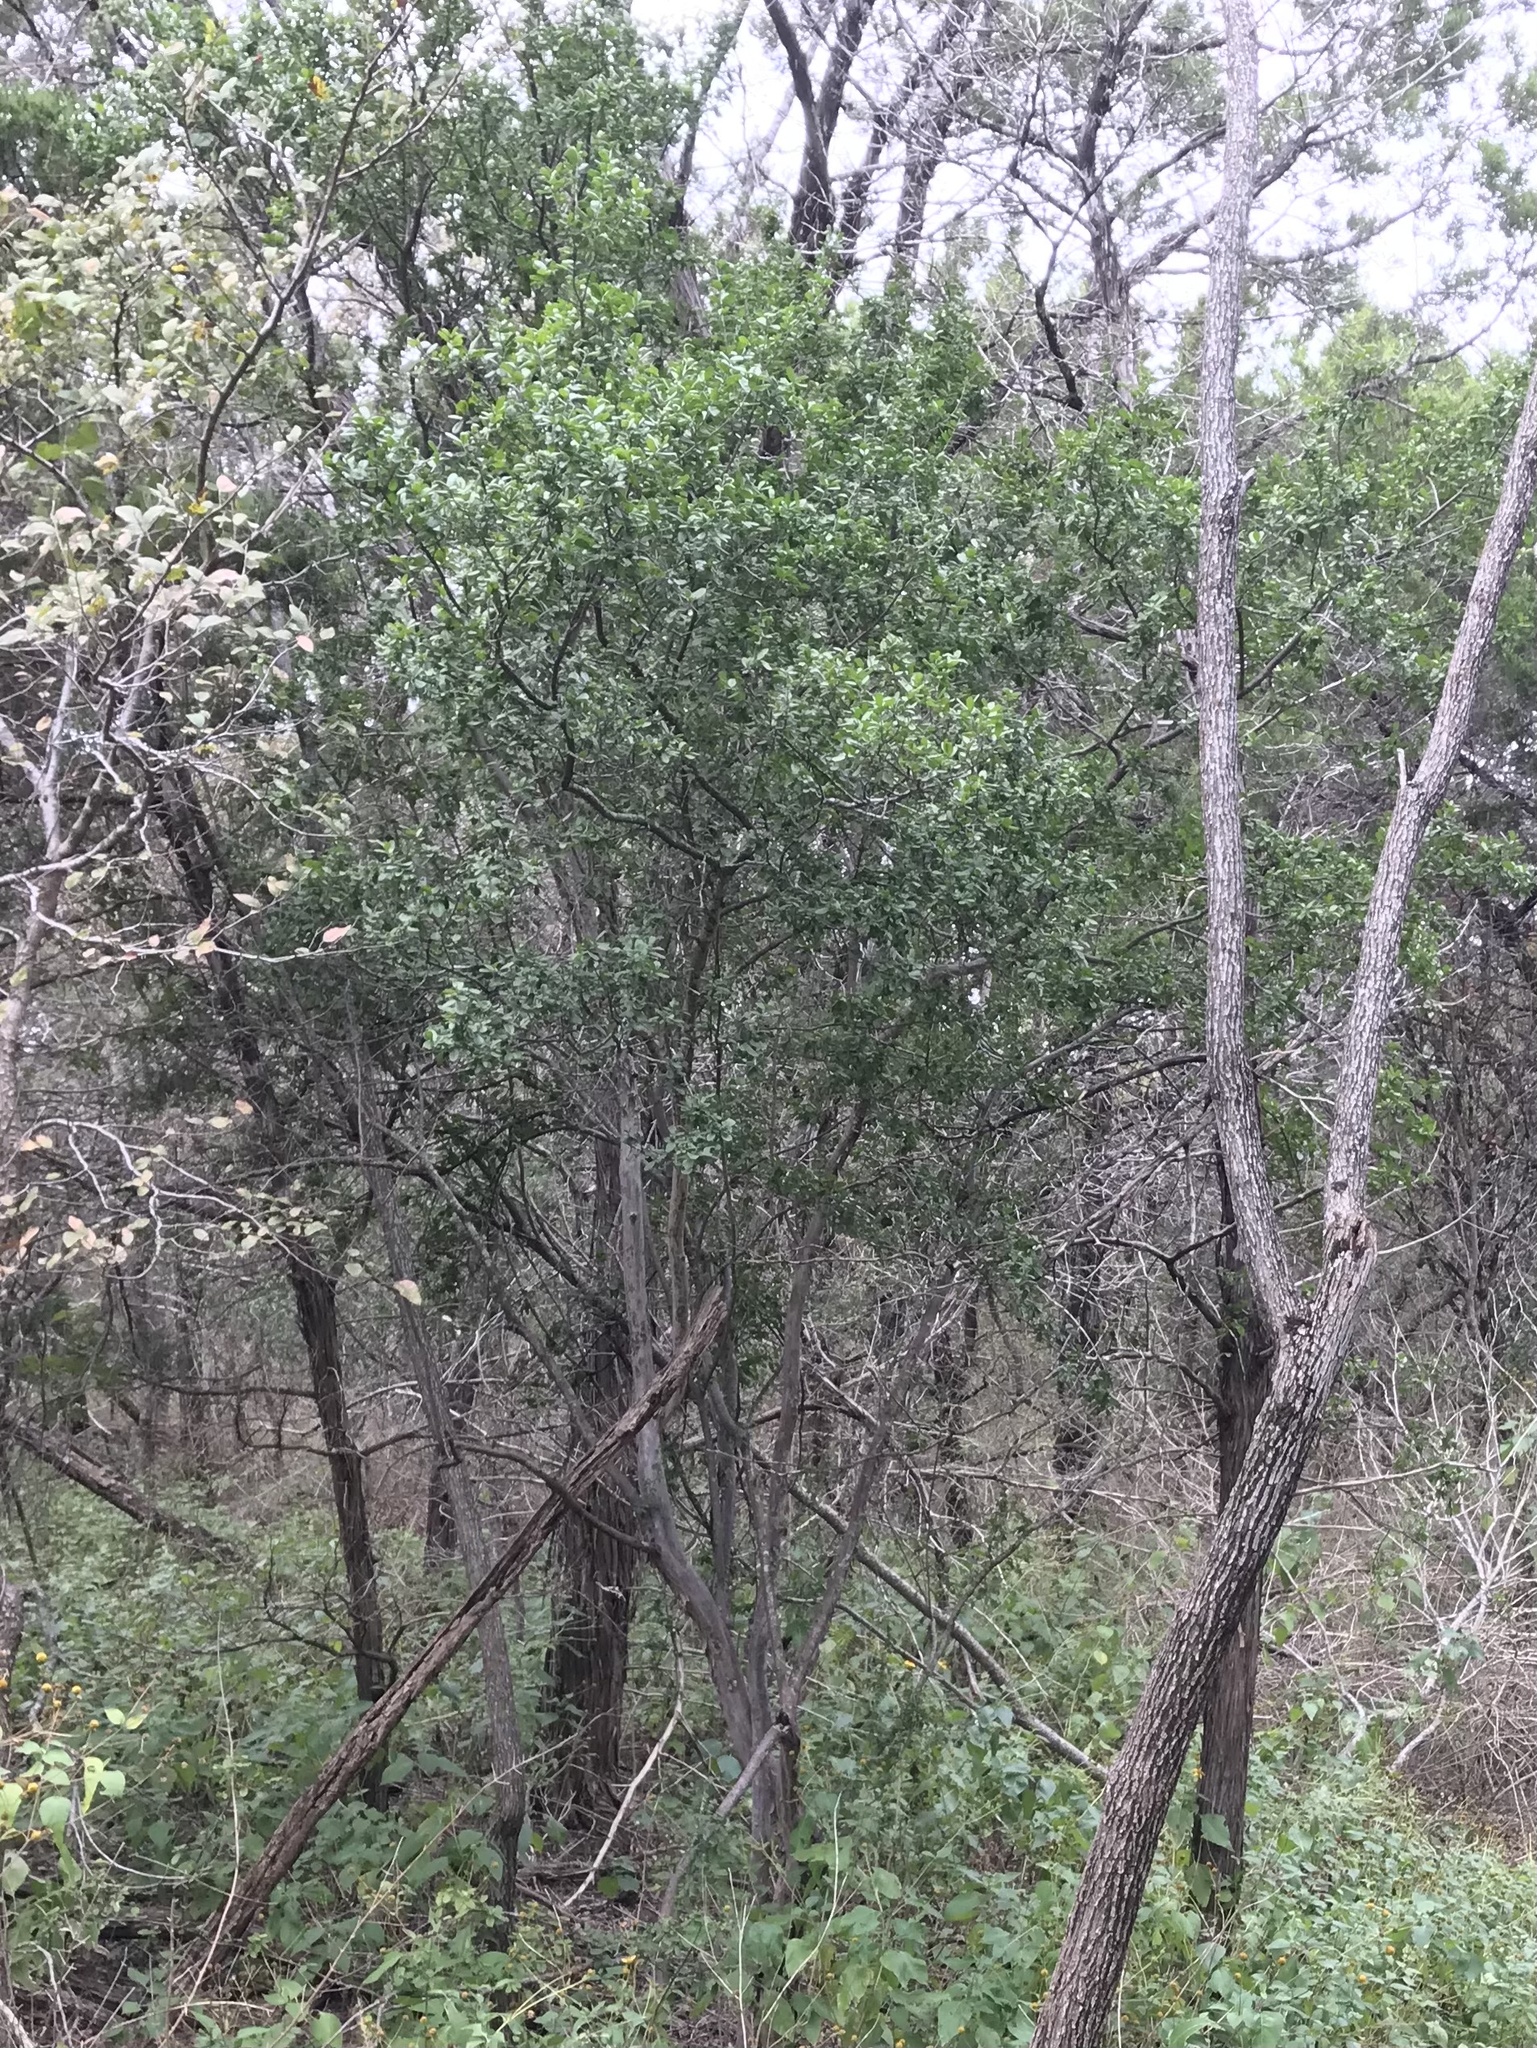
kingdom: Plantae
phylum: Tracheophyta
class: Magnoliopsida
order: Ericales
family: Ebenaceae
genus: Diospyros
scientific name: Diospyros texana
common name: Texas persimmon
